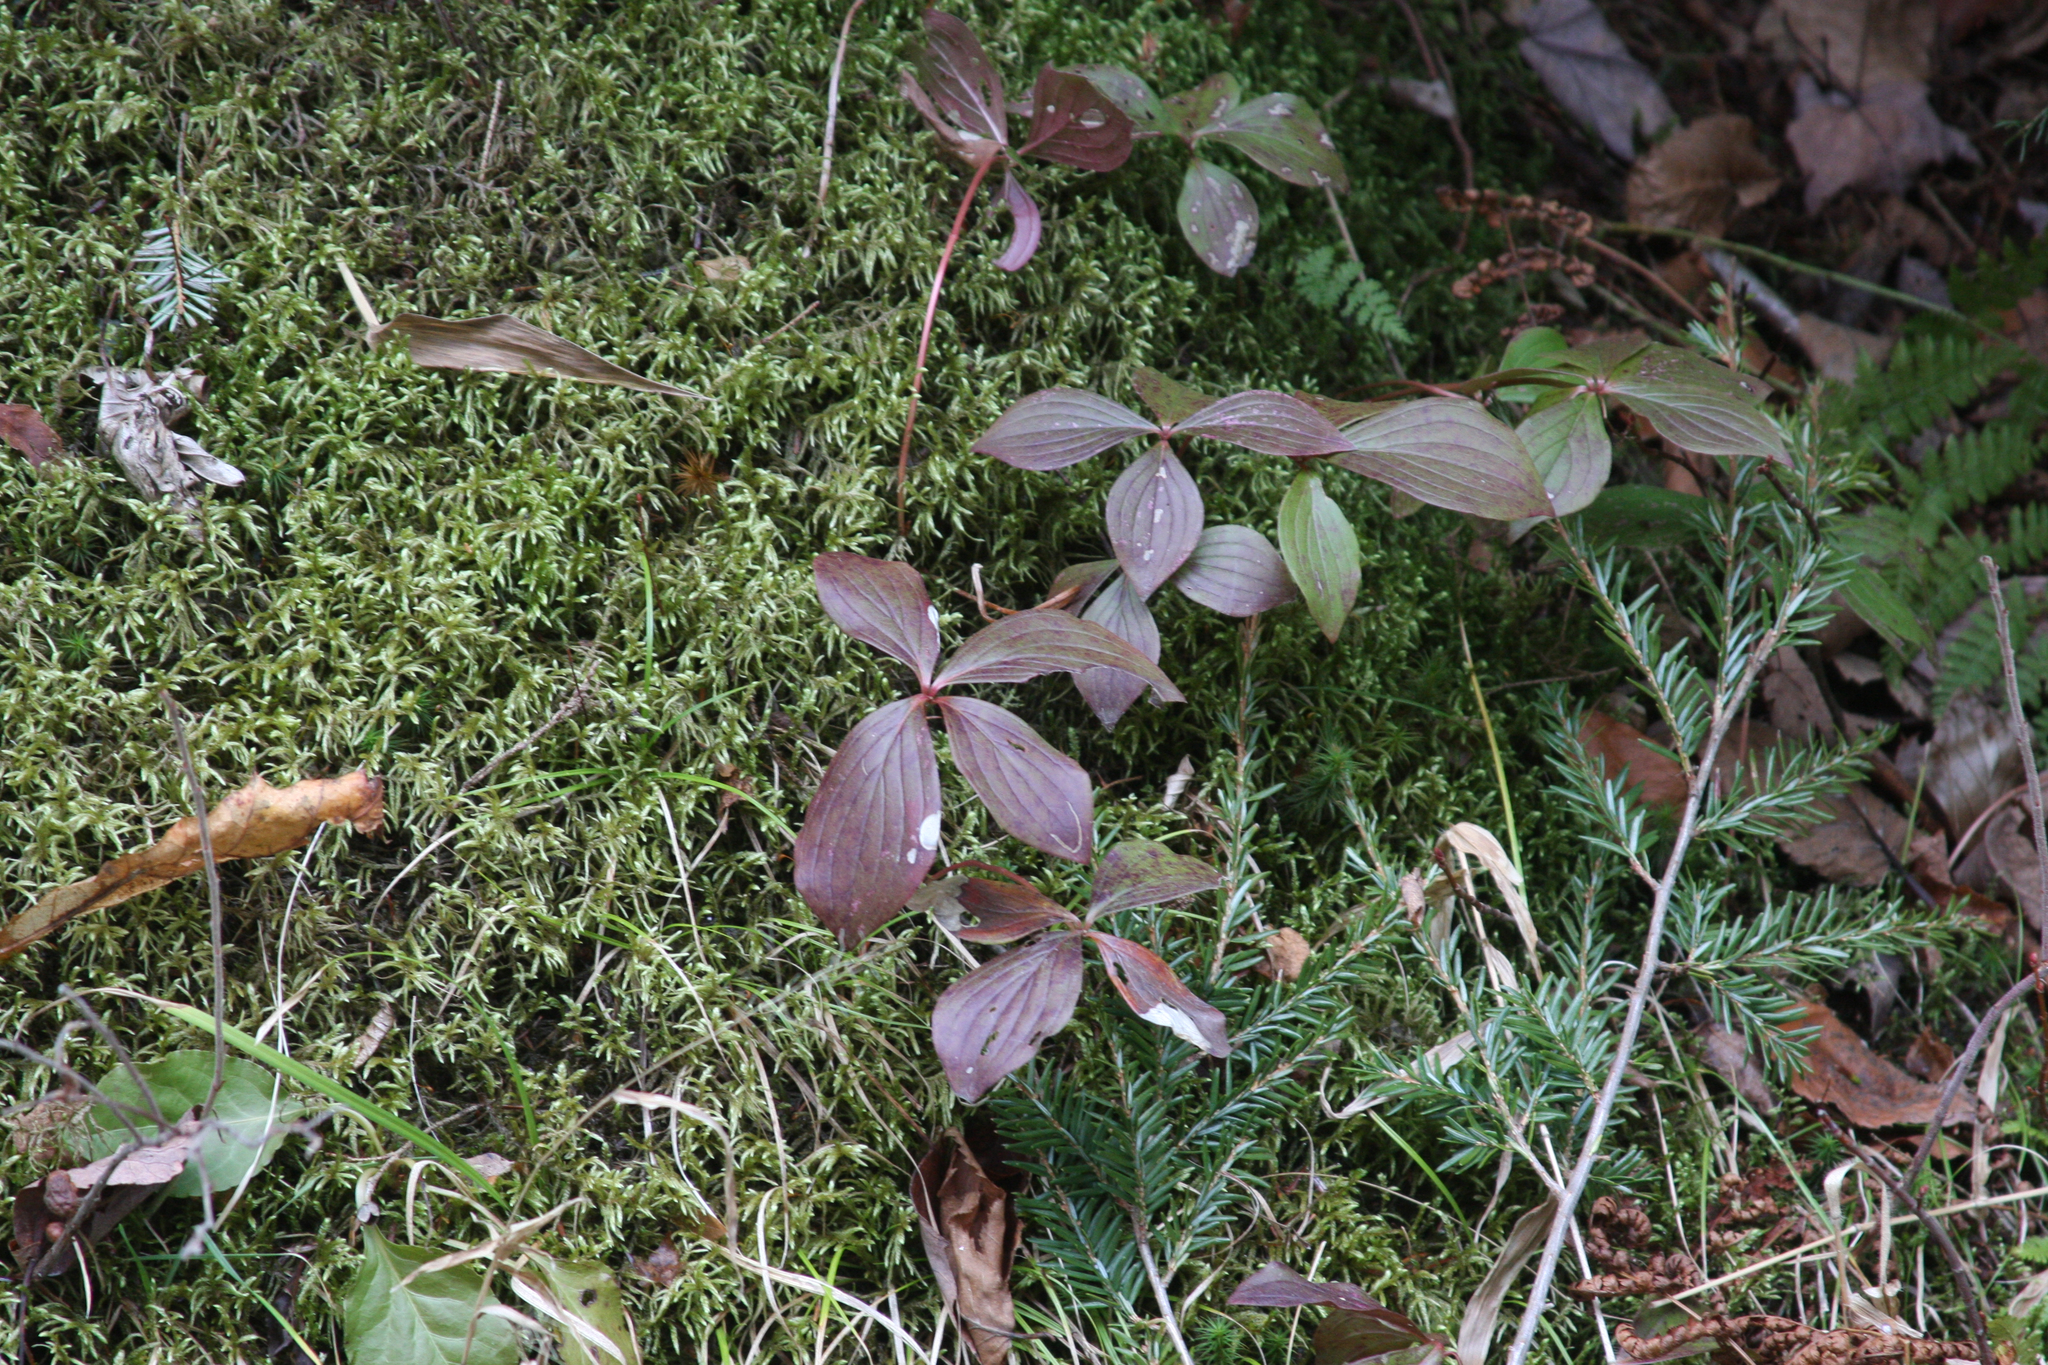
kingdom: Plantae
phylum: Tracheophyta
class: Magnoliopsida
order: Cornales
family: Cornaceae
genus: Cornus
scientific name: Cornus canadensis
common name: Creeping dogwood
